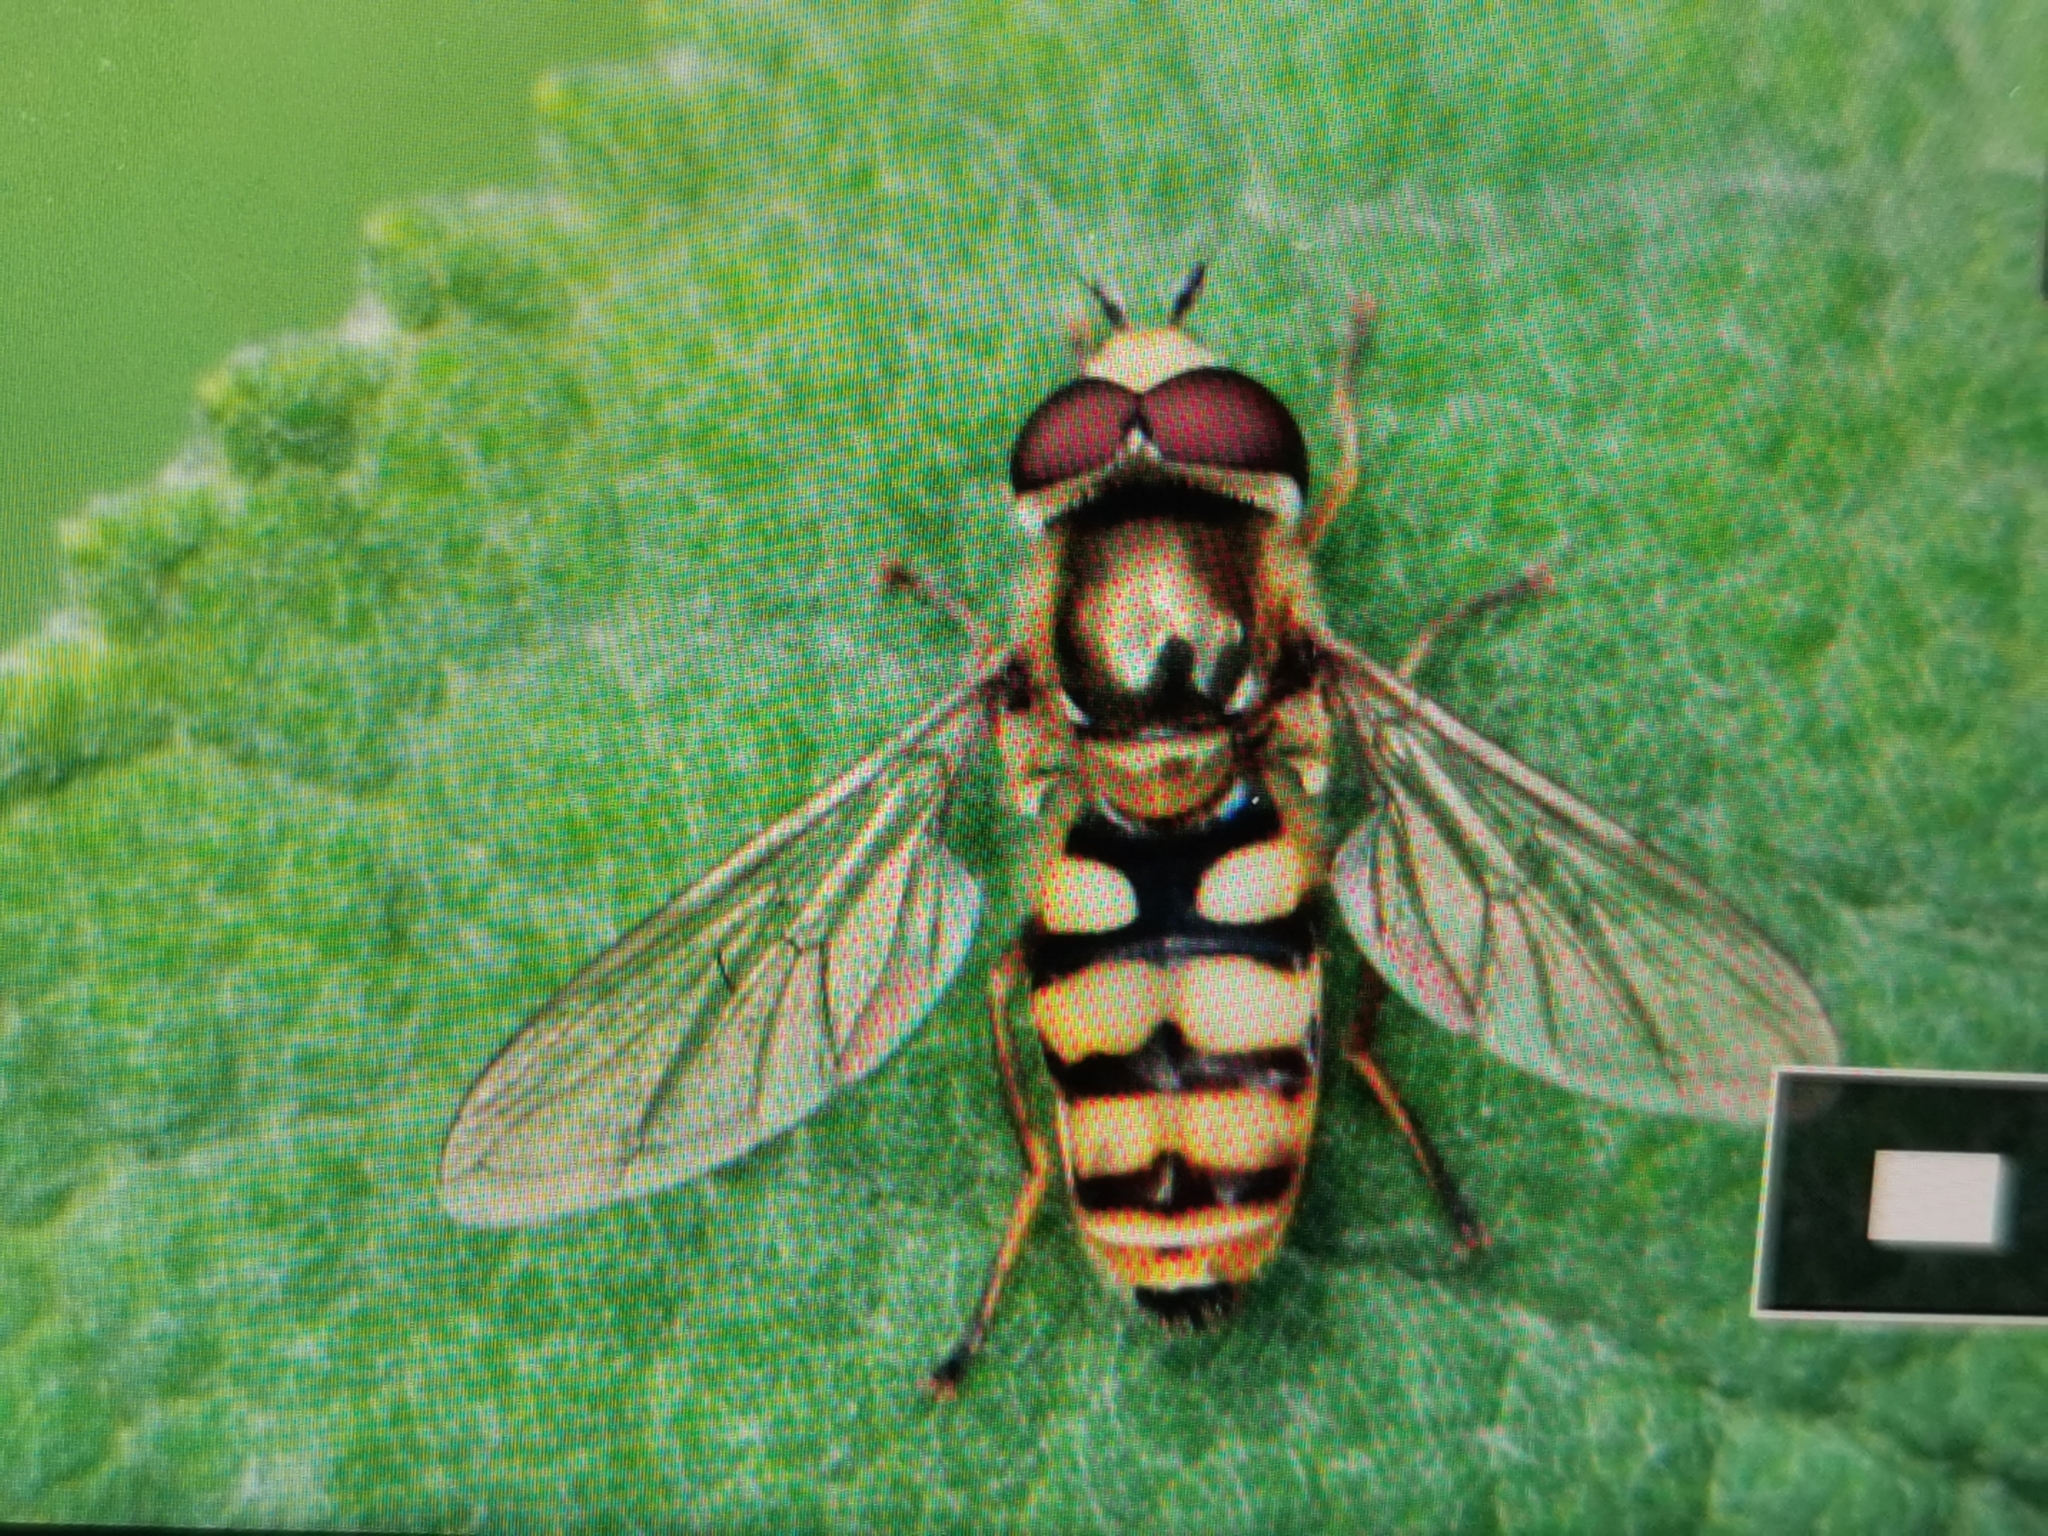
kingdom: Animalia
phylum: Arthropoda
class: Insecta
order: Diptera
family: Syrphidae
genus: Eupeodes
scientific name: Eupeodes corollae
